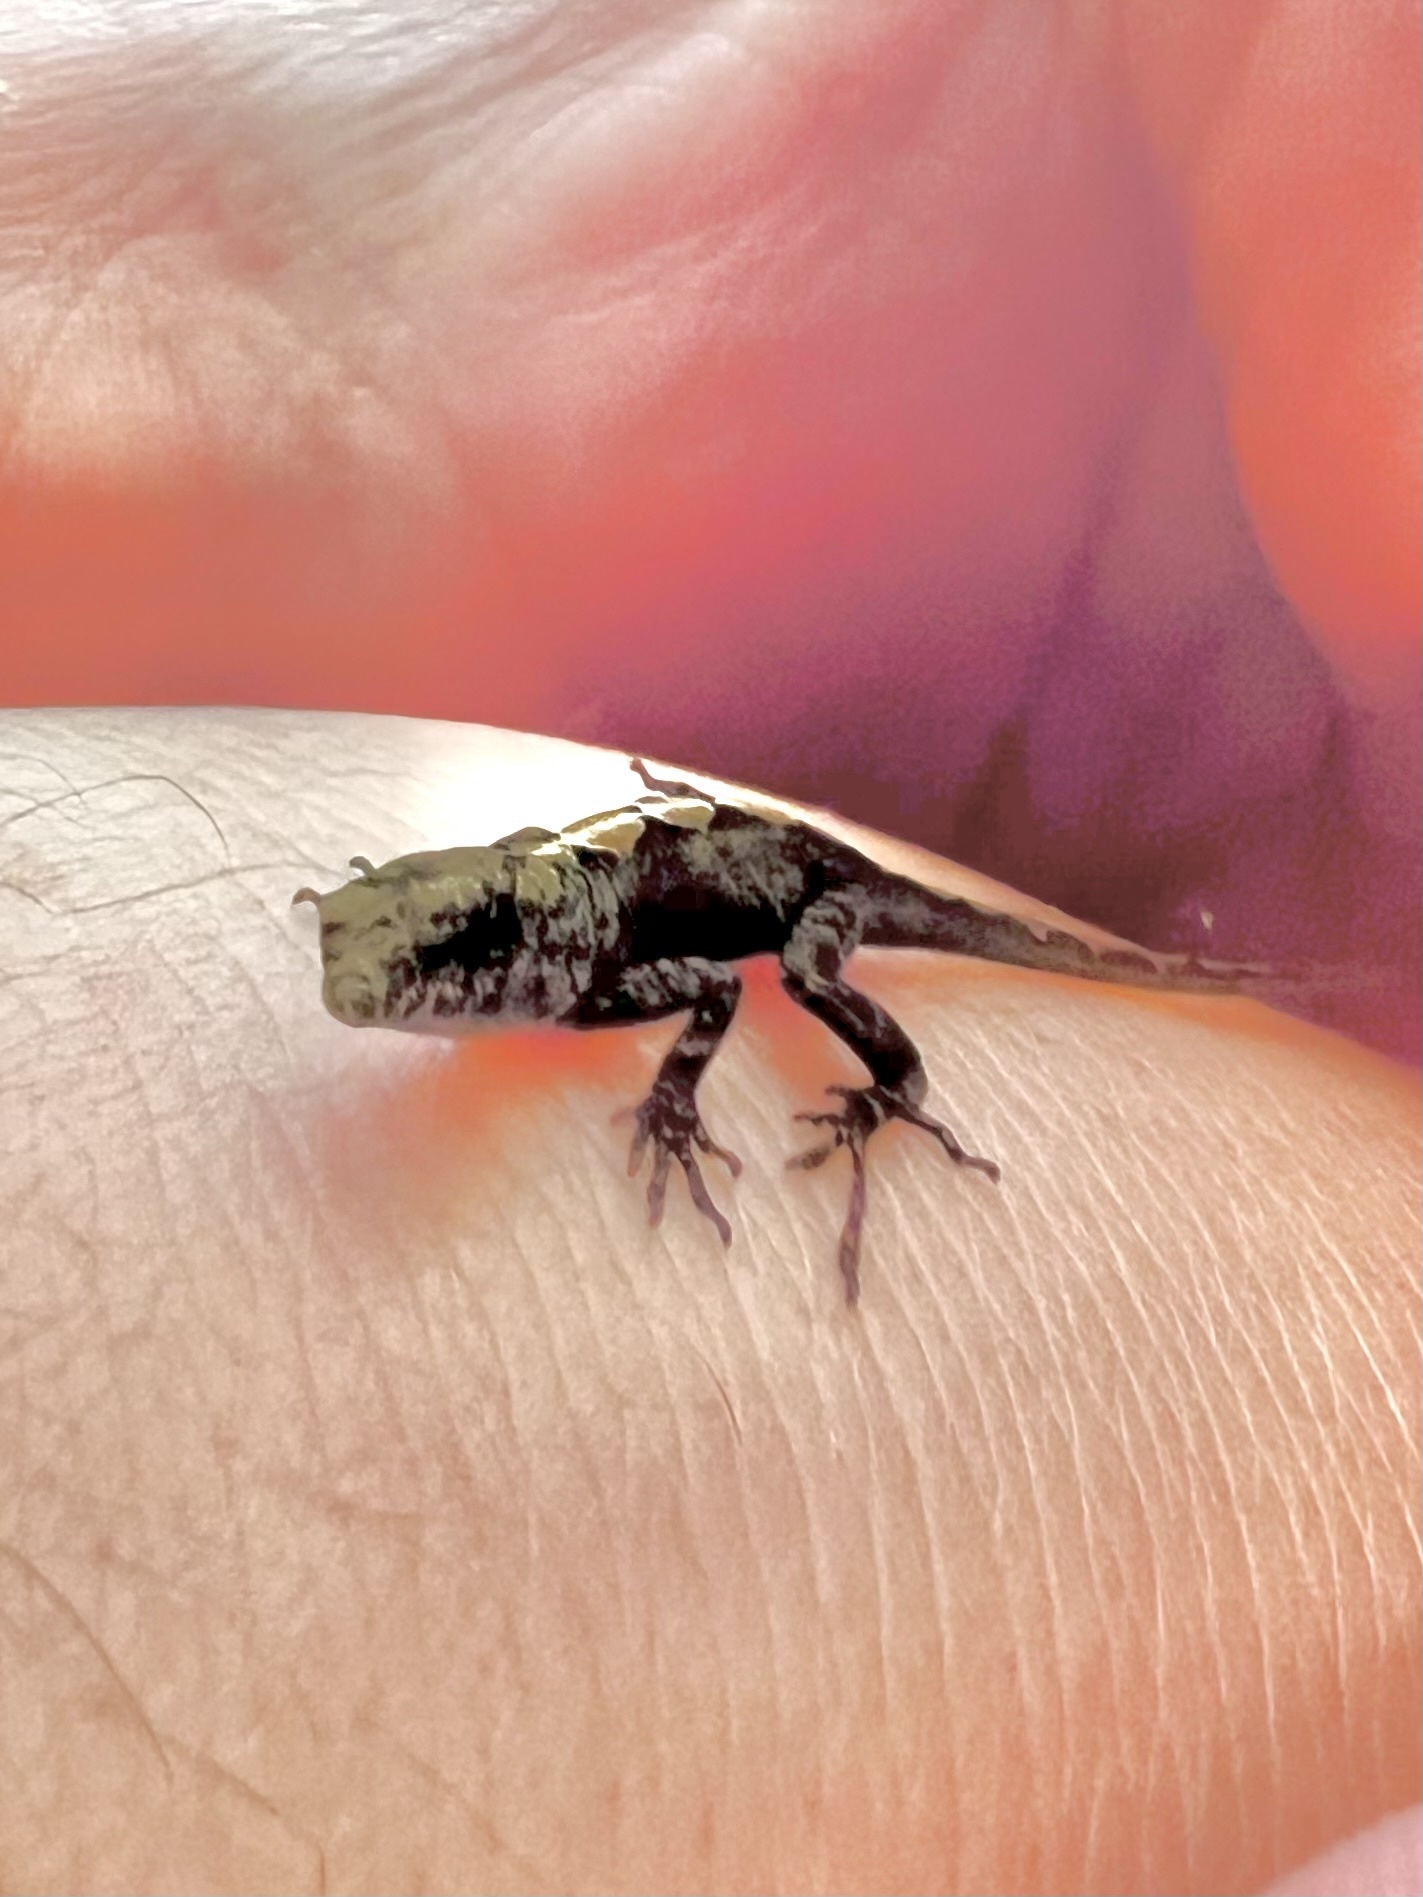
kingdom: Animalia
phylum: Chordata
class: Squamata
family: Dactyloidae
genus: Anolis
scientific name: Anolis sagrei
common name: Brown anole
